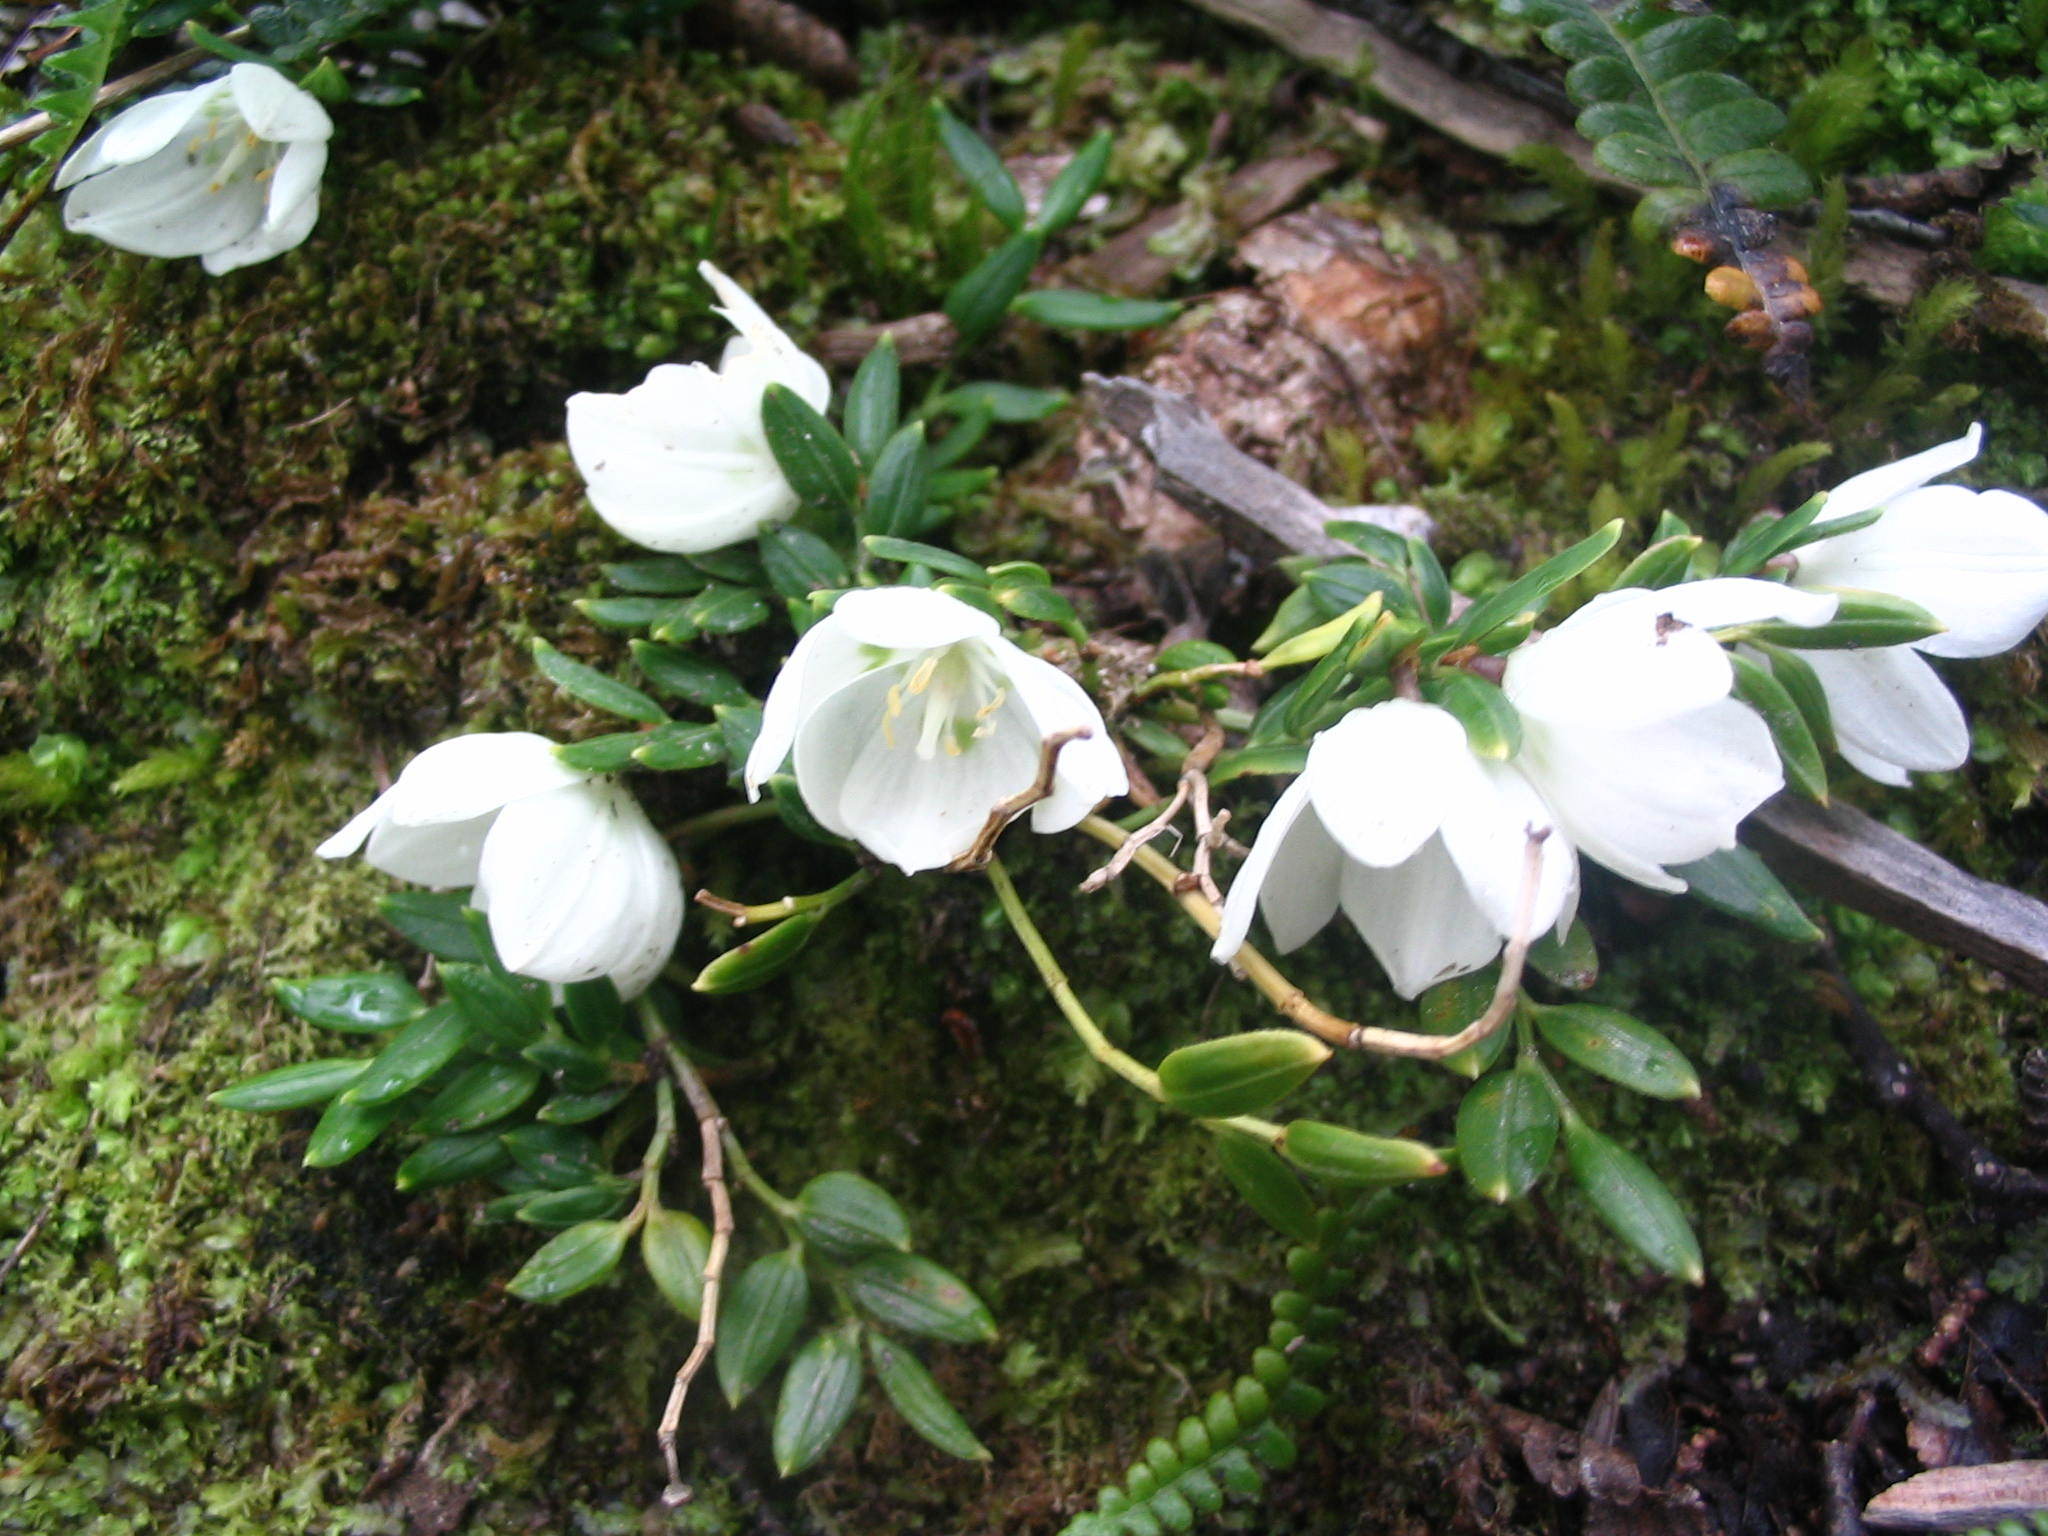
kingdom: Plantae
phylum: Tracheophyta
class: Liliopsida
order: Liliales
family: Alstroemeriaceae
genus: Luzuriaga
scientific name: Luzuriaga marginata
